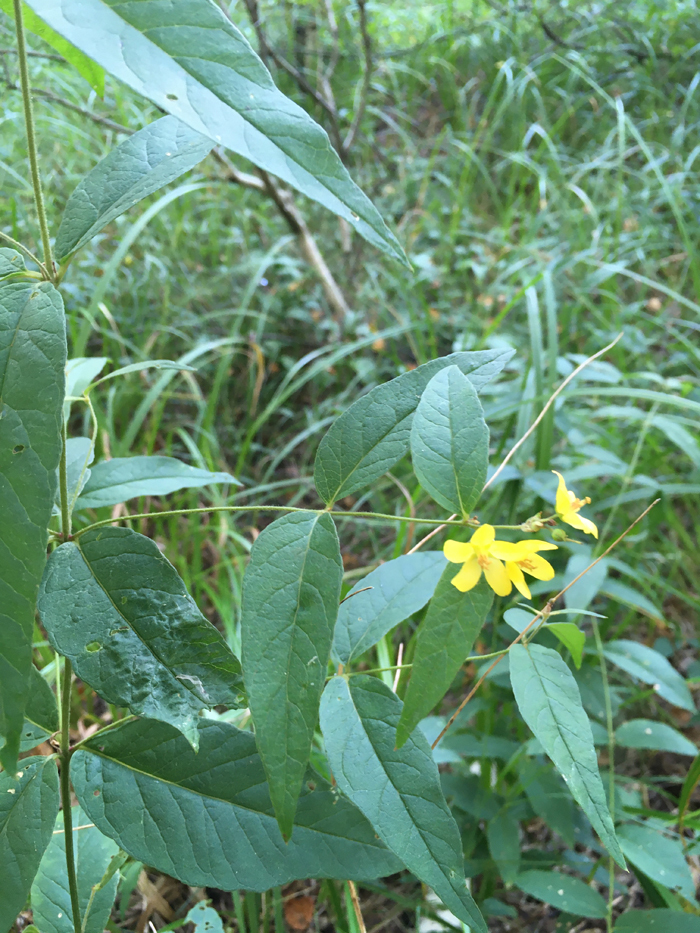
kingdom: Plantae
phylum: Tracheophyta
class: Magnoliopsida
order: Ericales
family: Primulaceae
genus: Lysimachia
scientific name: Lysimachia vulgaris
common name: Yellow loosestrife
